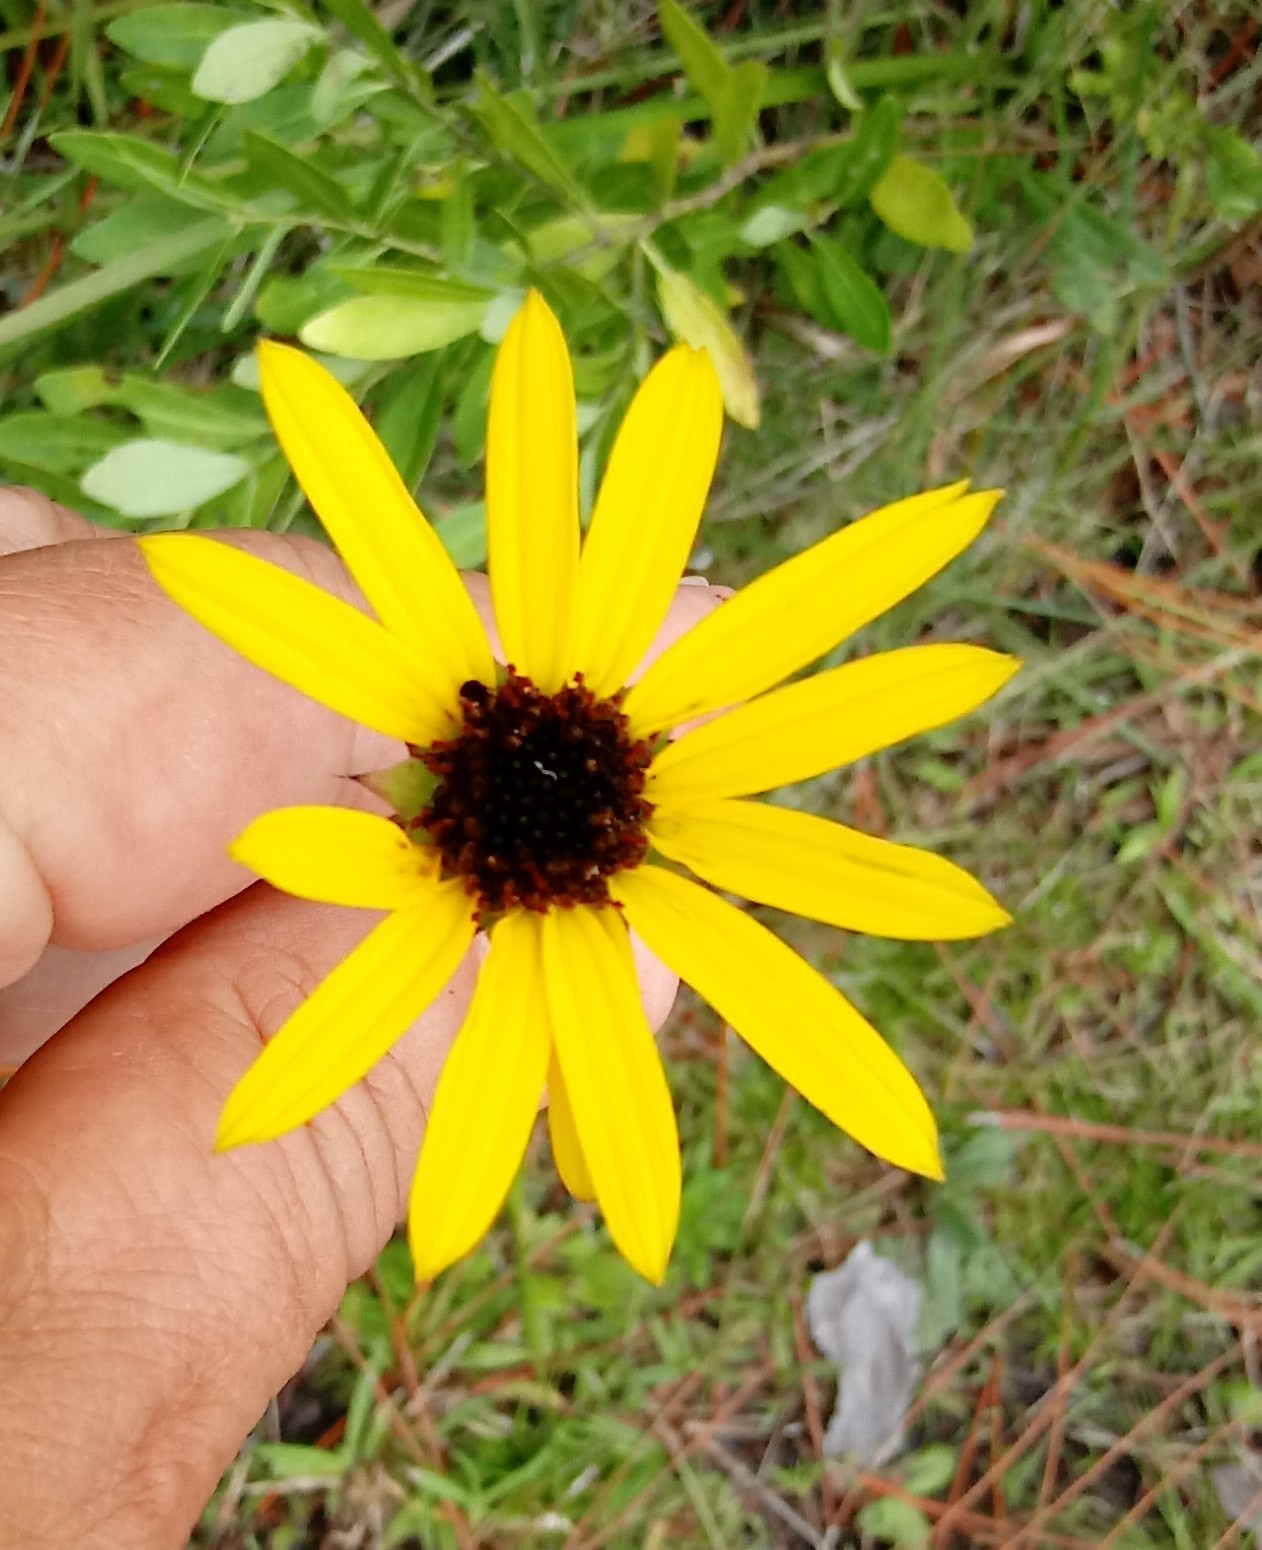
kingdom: Plantae
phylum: Tracheophyta
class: Magnoliopsida
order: Asterales
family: Asteraceae
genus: Helianthus
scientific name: Helianthus heterophyllus
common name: Wetland sunflower
